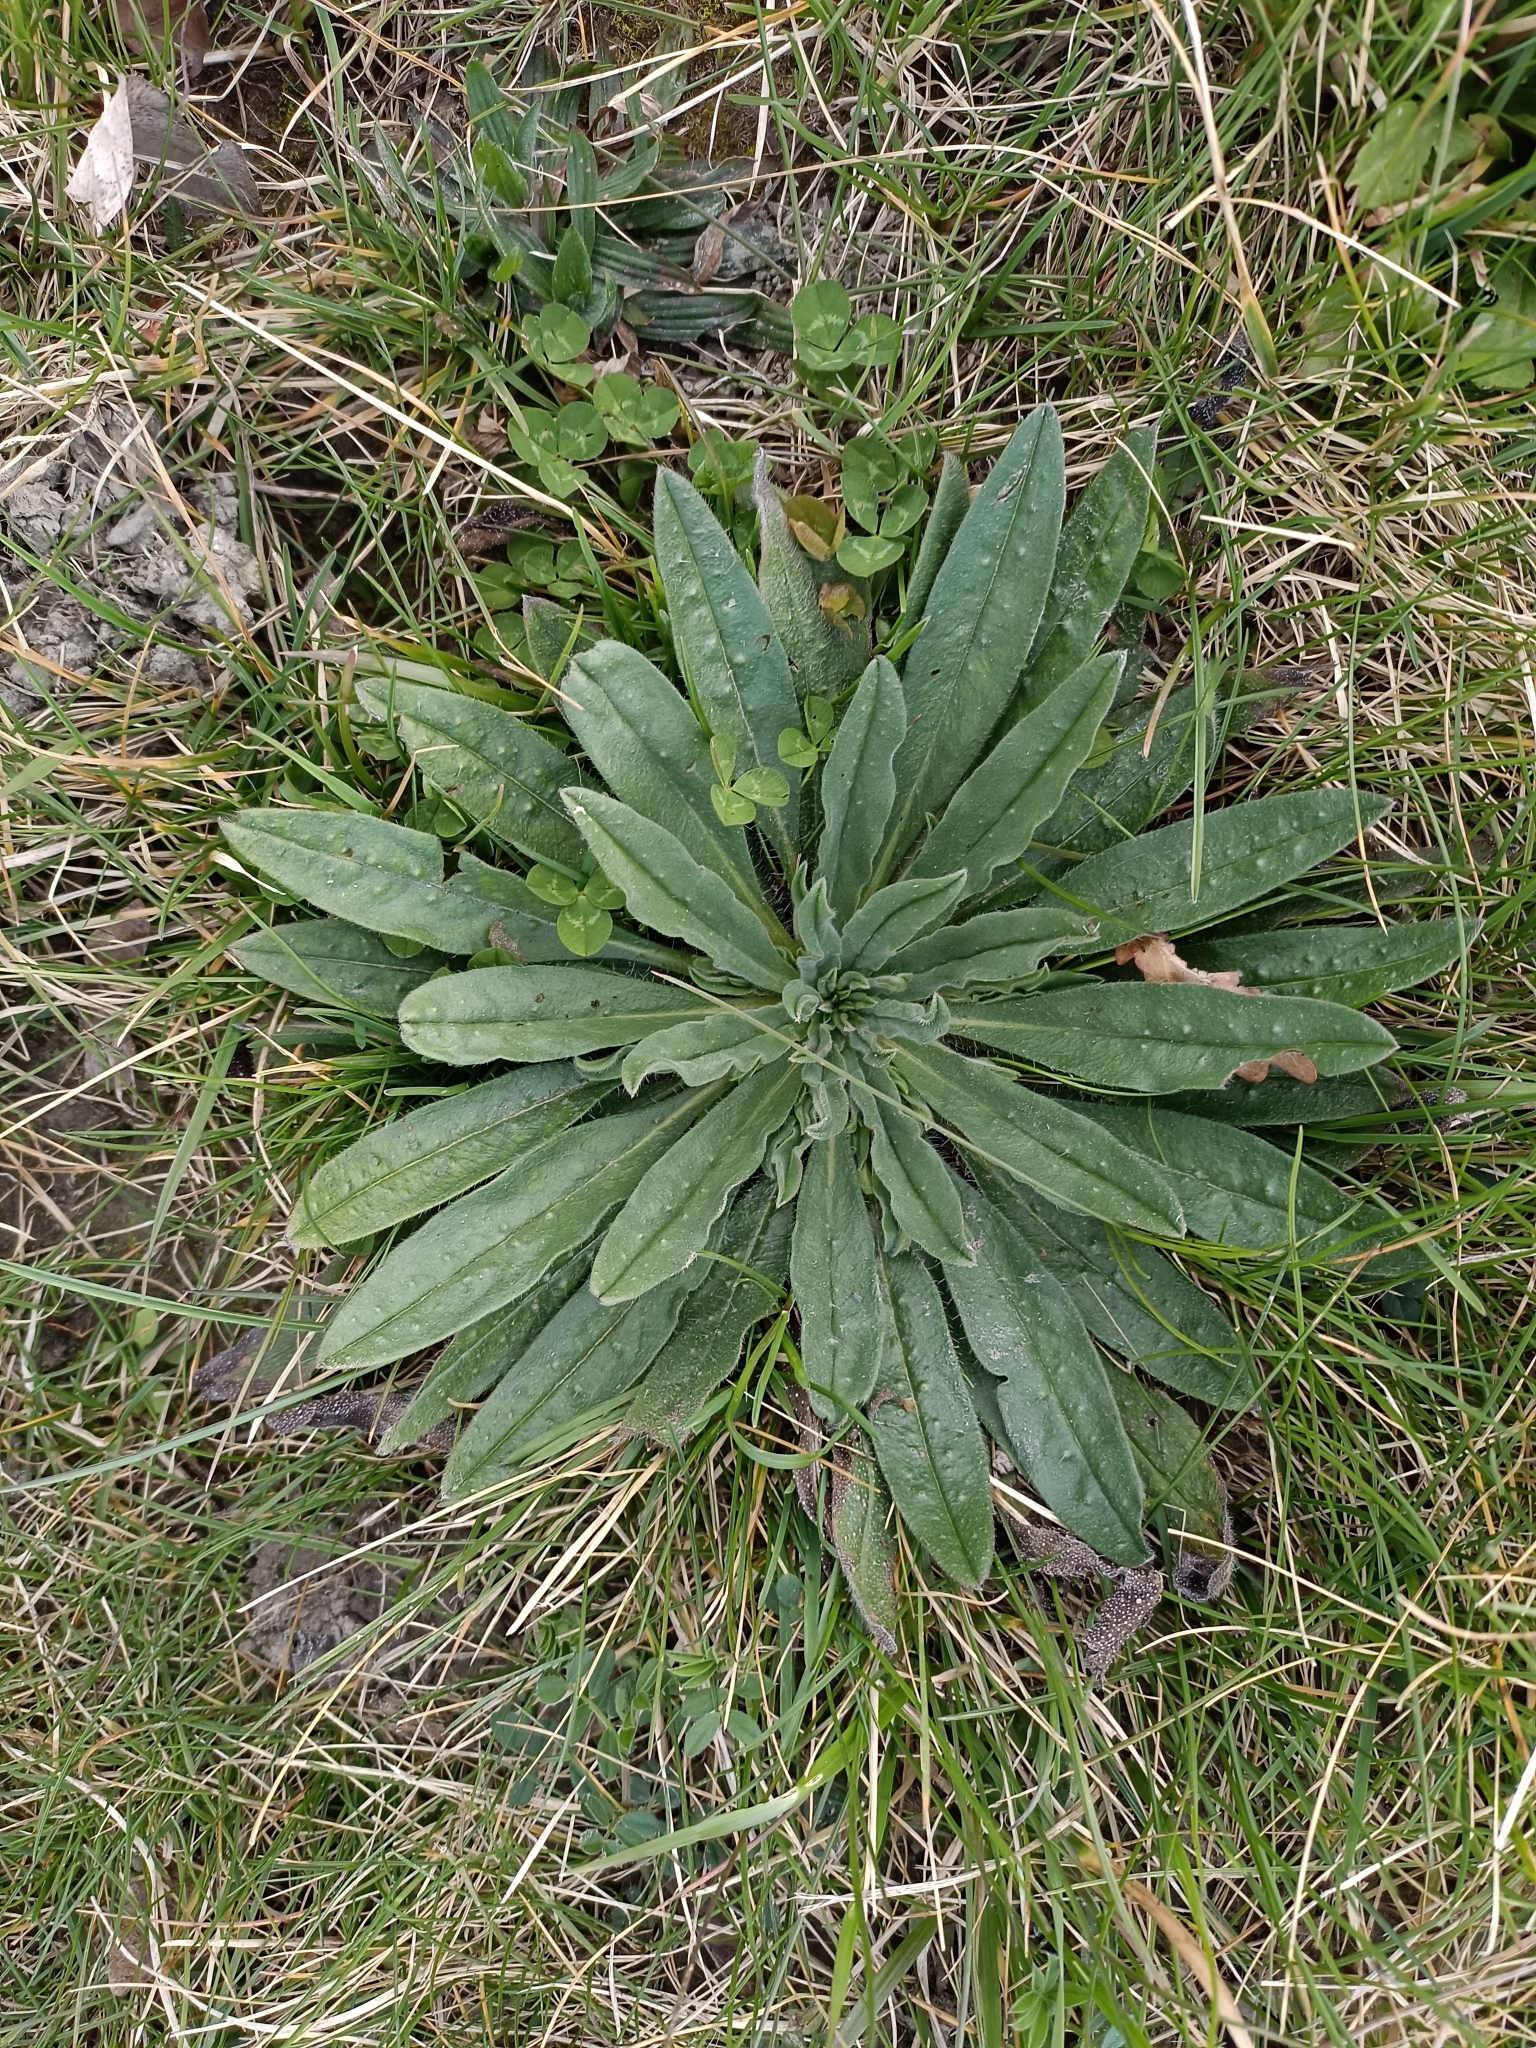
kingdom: Plantae
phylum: Tracheophyta
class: Magnoliopsida
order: Boraginales
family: Boraginaceae
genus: Echium
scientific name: Echium vulgare
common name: Common viper's bugloss
